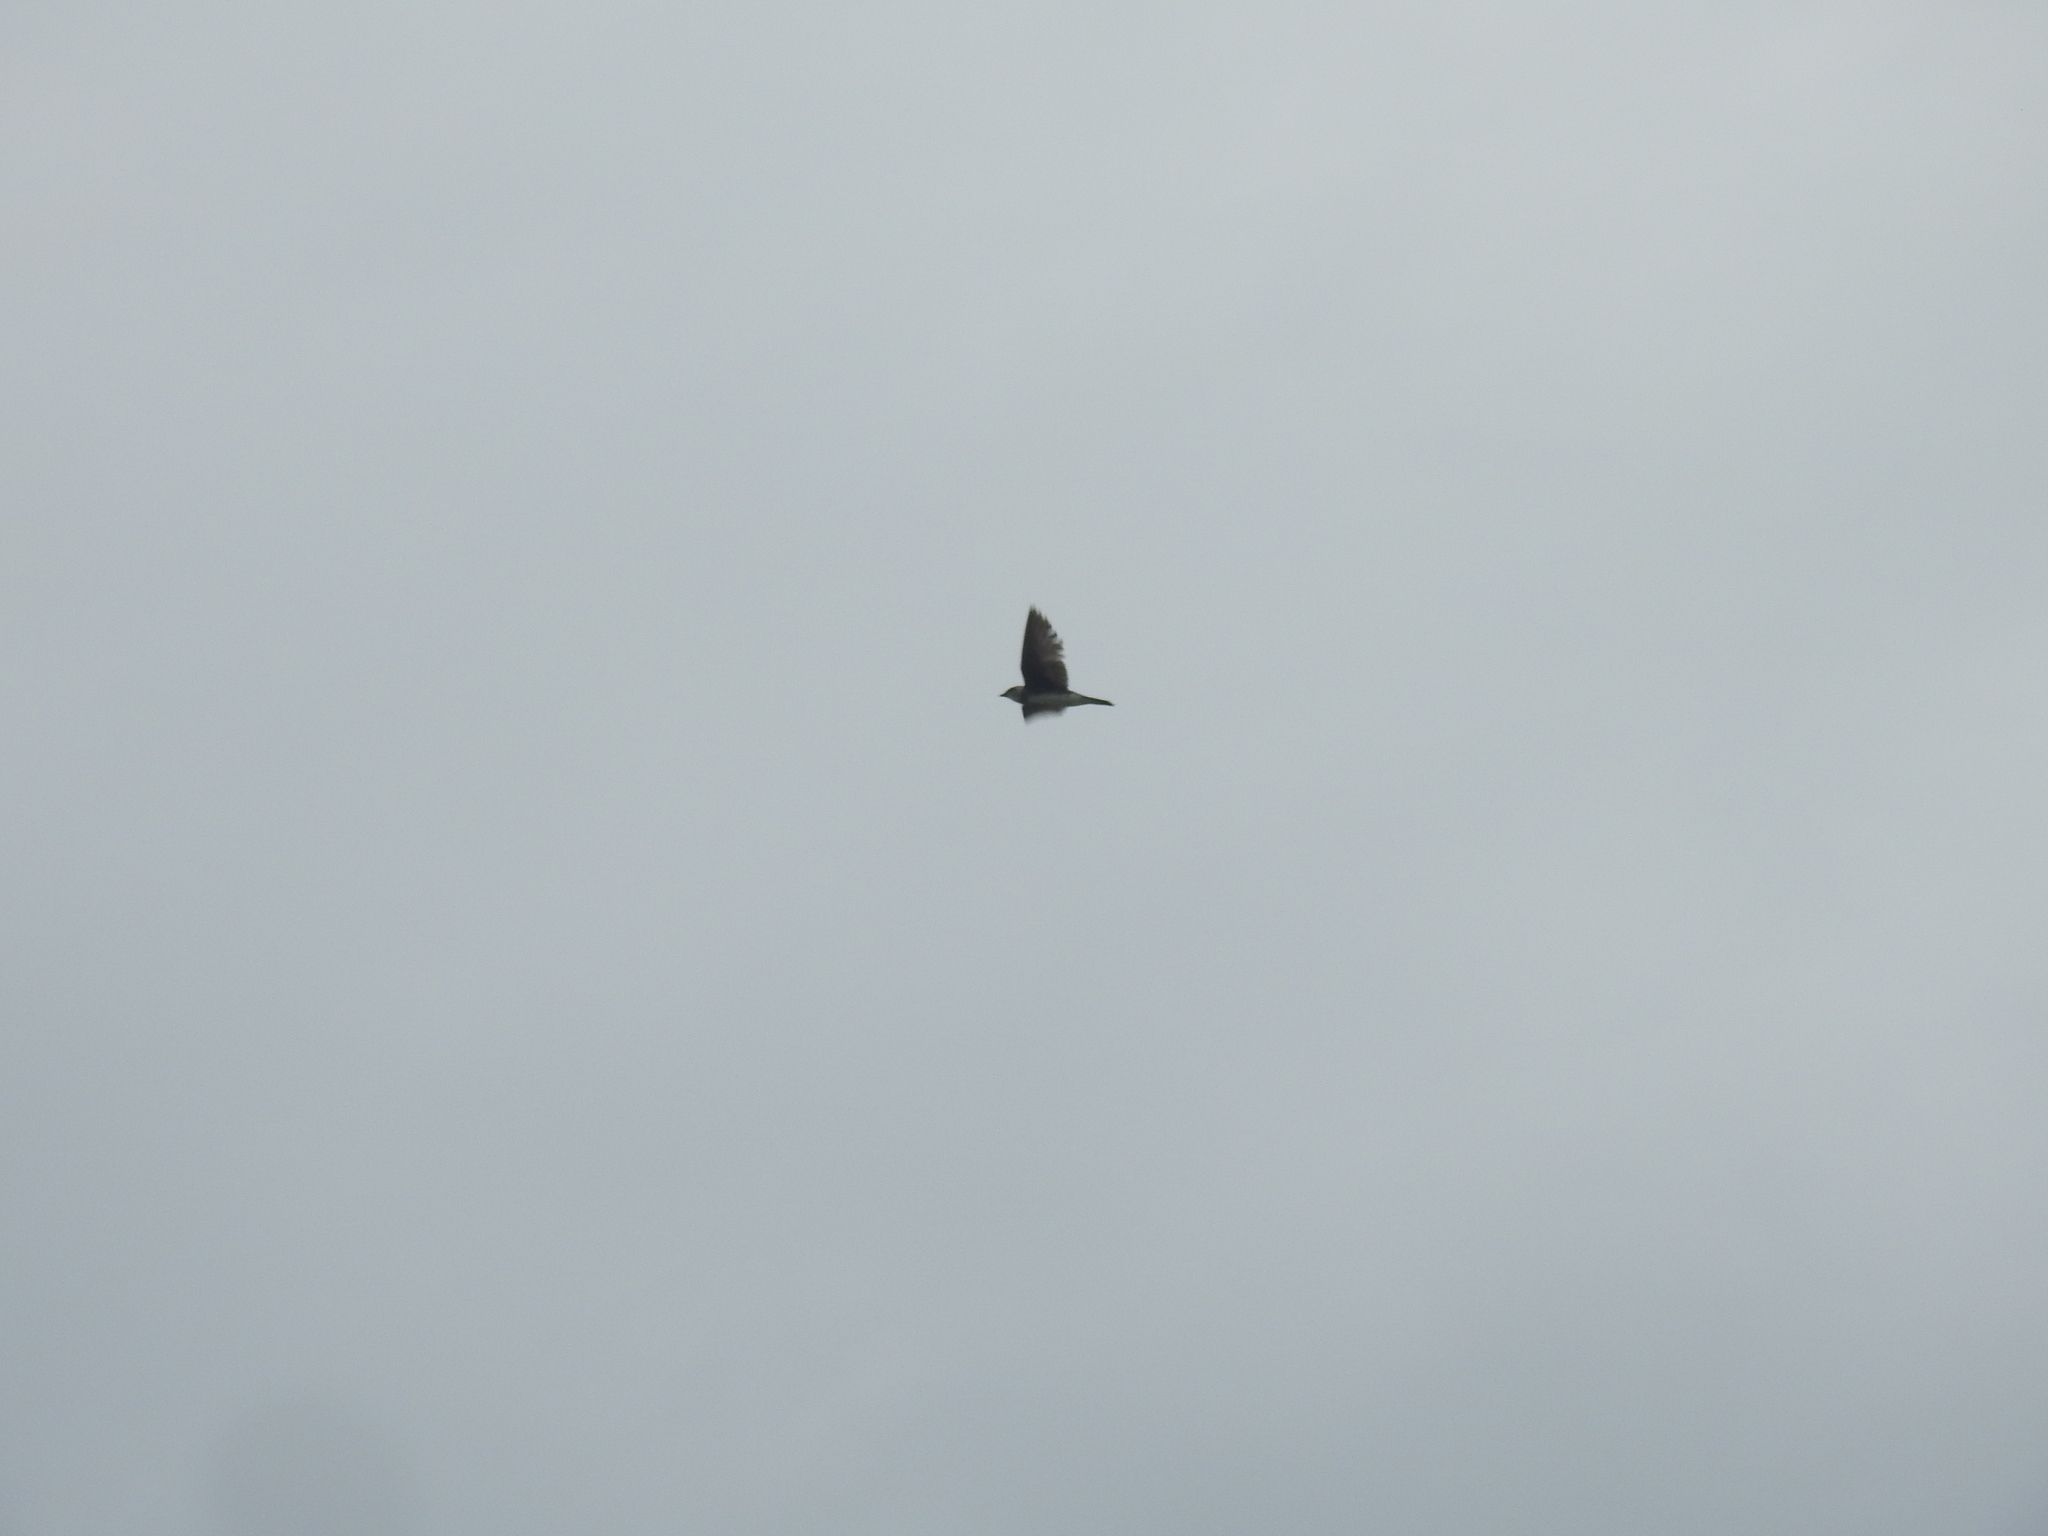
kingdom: Animalia
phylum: Chordata
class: Aves
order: Passeriformes
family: Hirundinidae
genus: Progne
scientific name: Progne tapera
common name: Brown-chested martin
